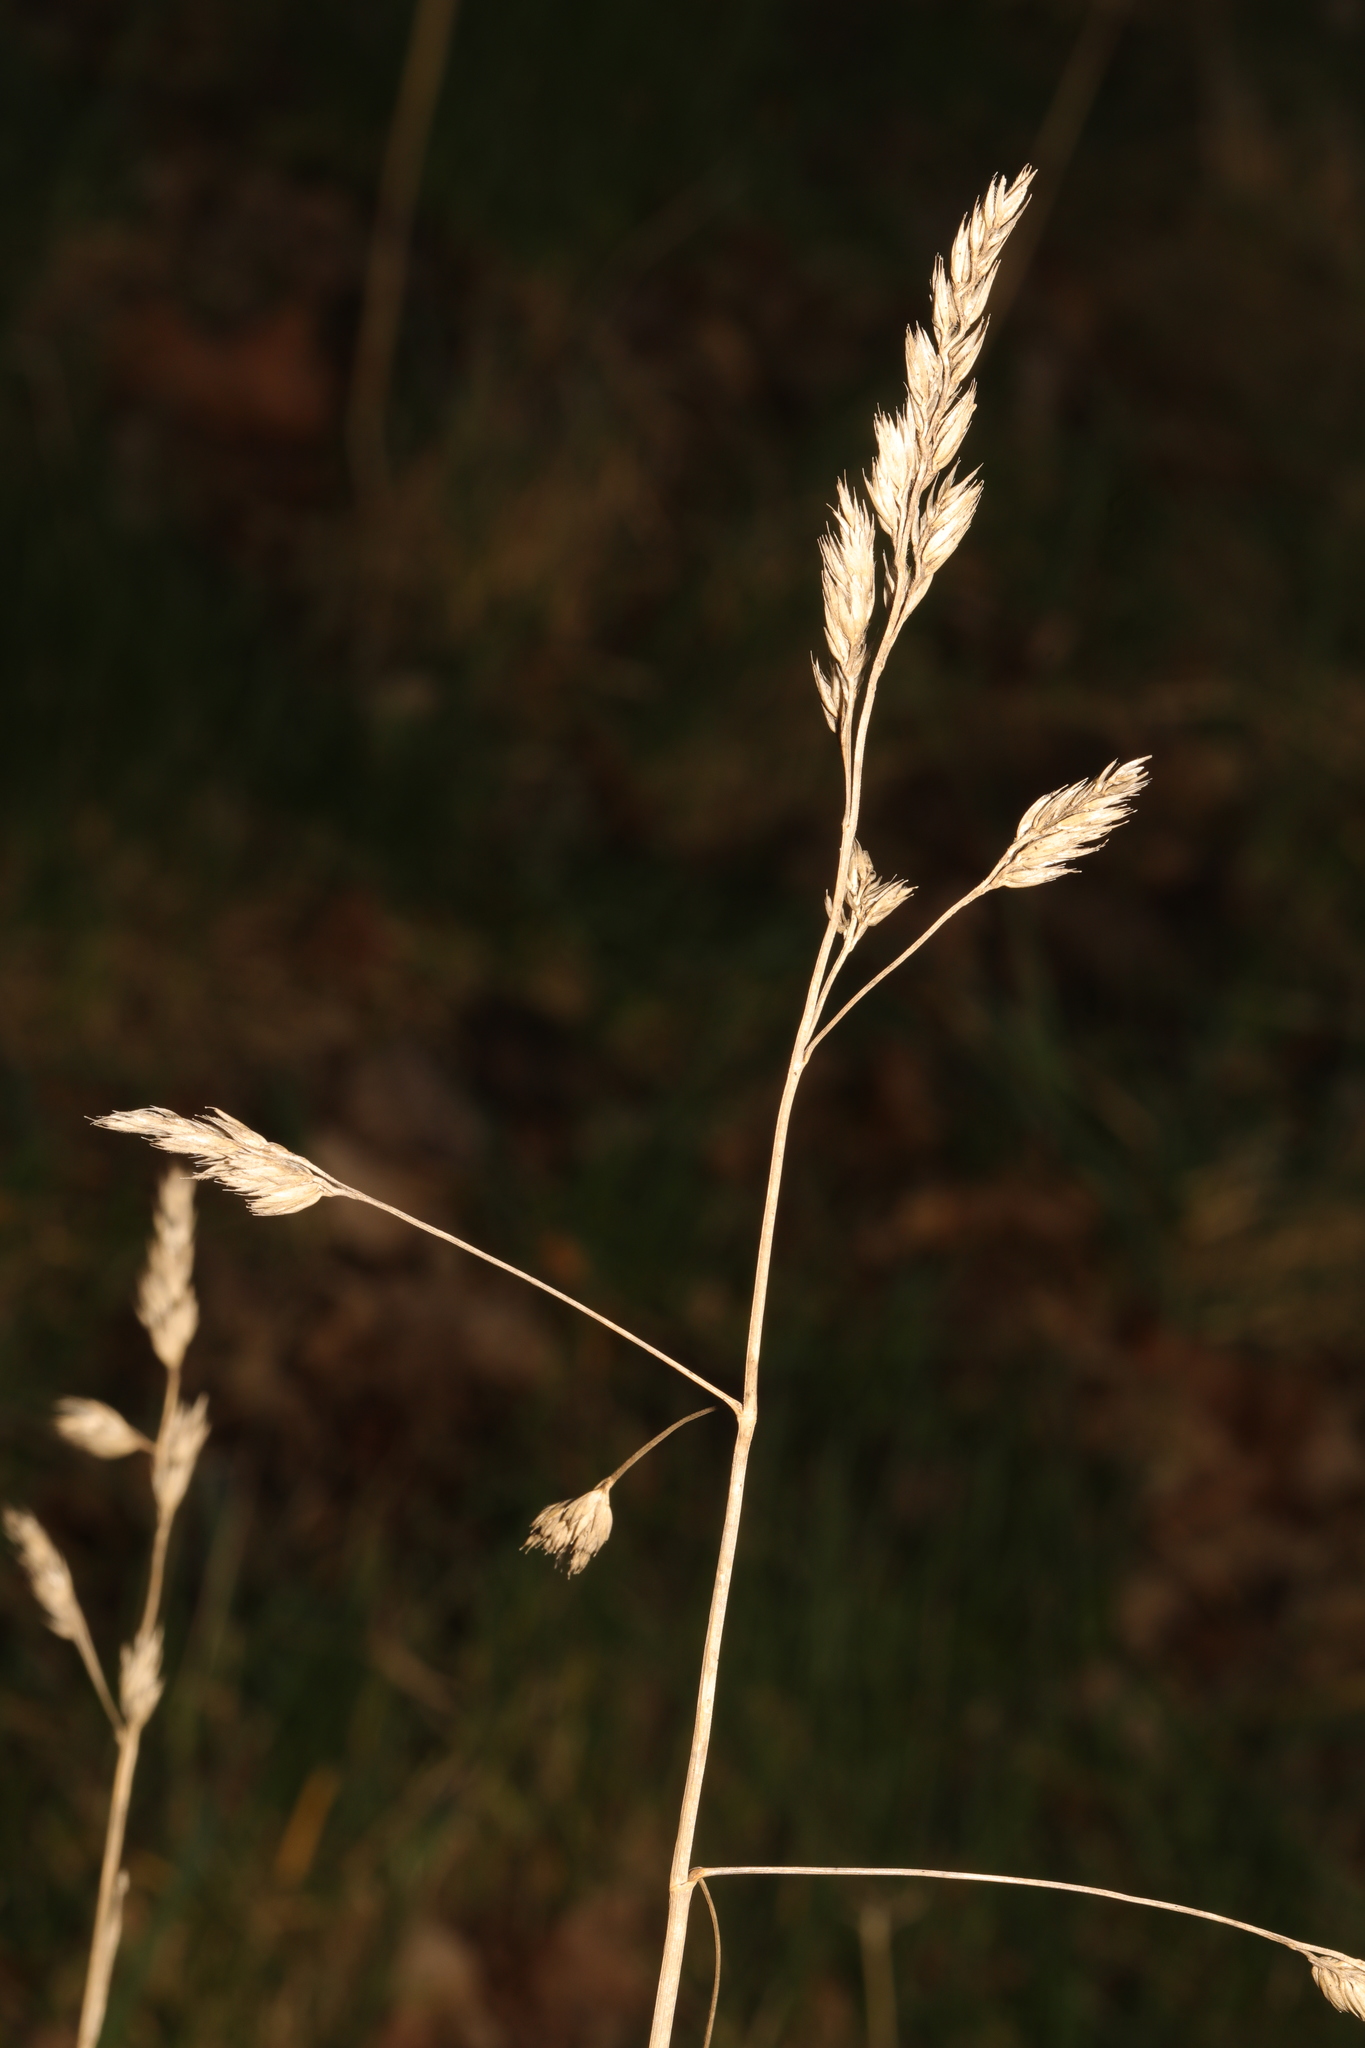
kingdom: Plantae
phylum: Tracheophyta
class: Liliopsida
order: Poales
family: Poaceae
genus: Dactylis
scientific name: Dactylis glomerata
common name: Orchardgrass
